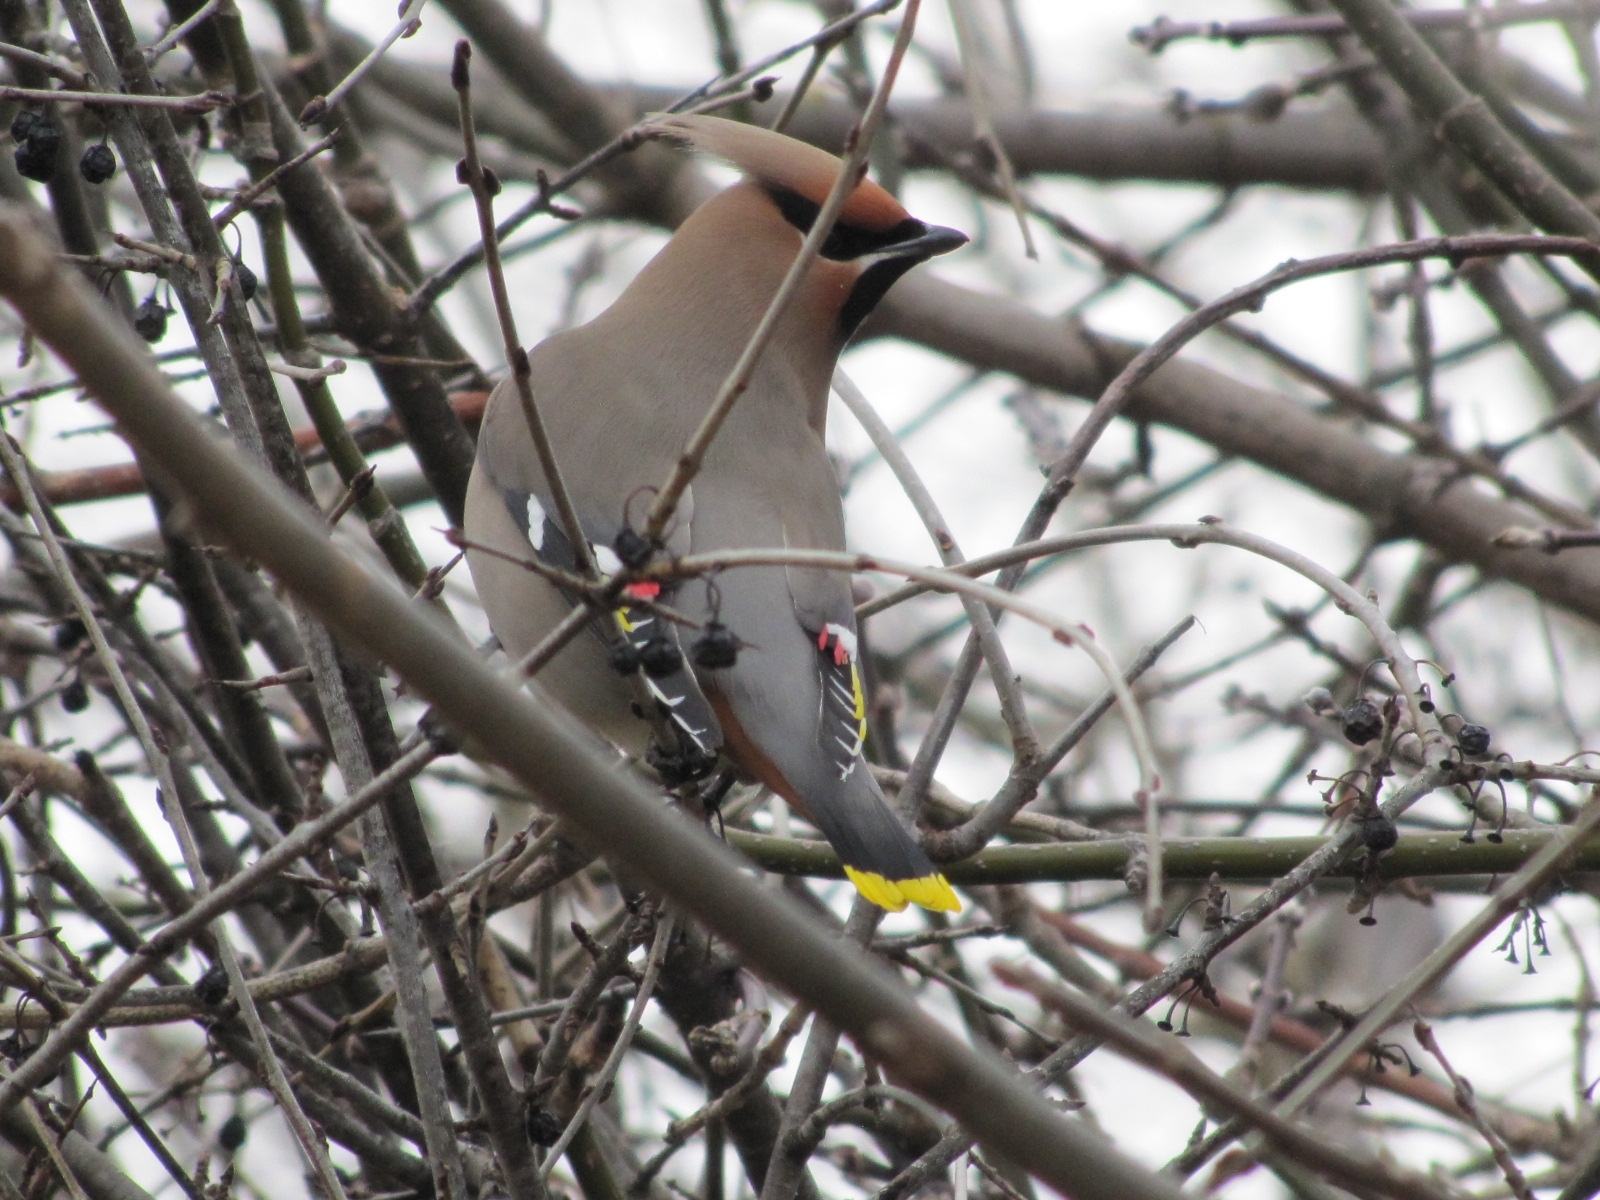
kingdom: Animalia
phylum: Chordata
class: Aves
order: Passeriformes
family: Bombycillidae
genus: Bombycilla
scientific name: Bombycilla garrulus
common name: Bohemian waxwing
